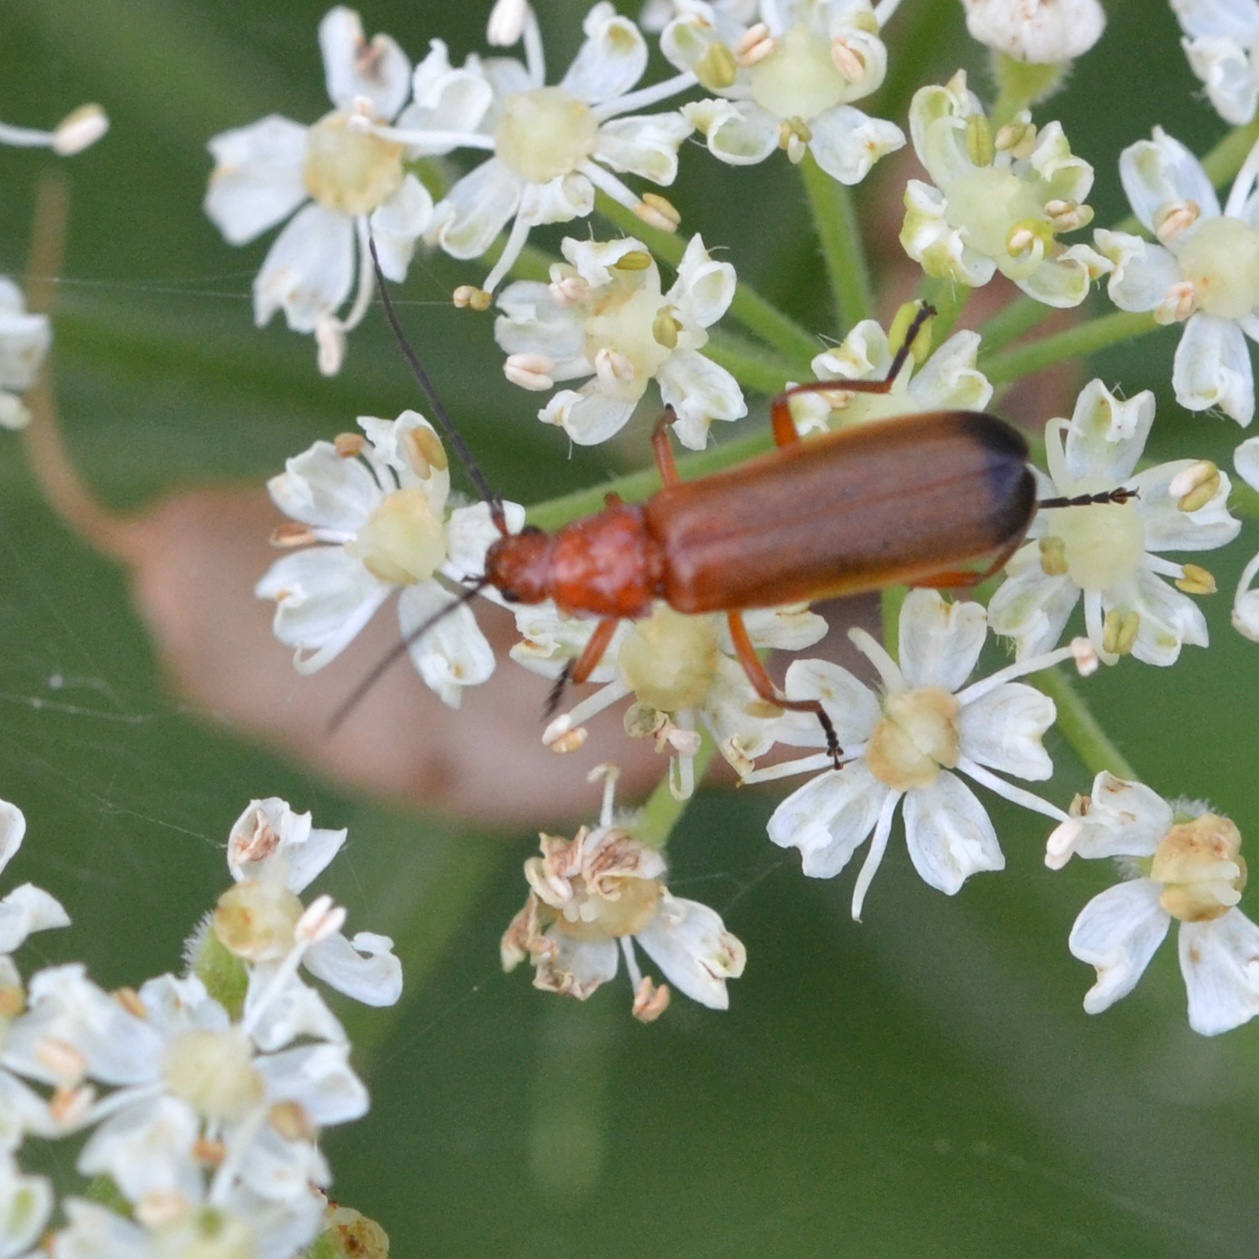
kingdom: Animalia
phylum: Arthropoda
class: Insecta
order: Coleoptera
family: Cantharidae
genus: Rhagonycha
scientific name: Rhagonycha fulva
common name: Common red soldier beetle
